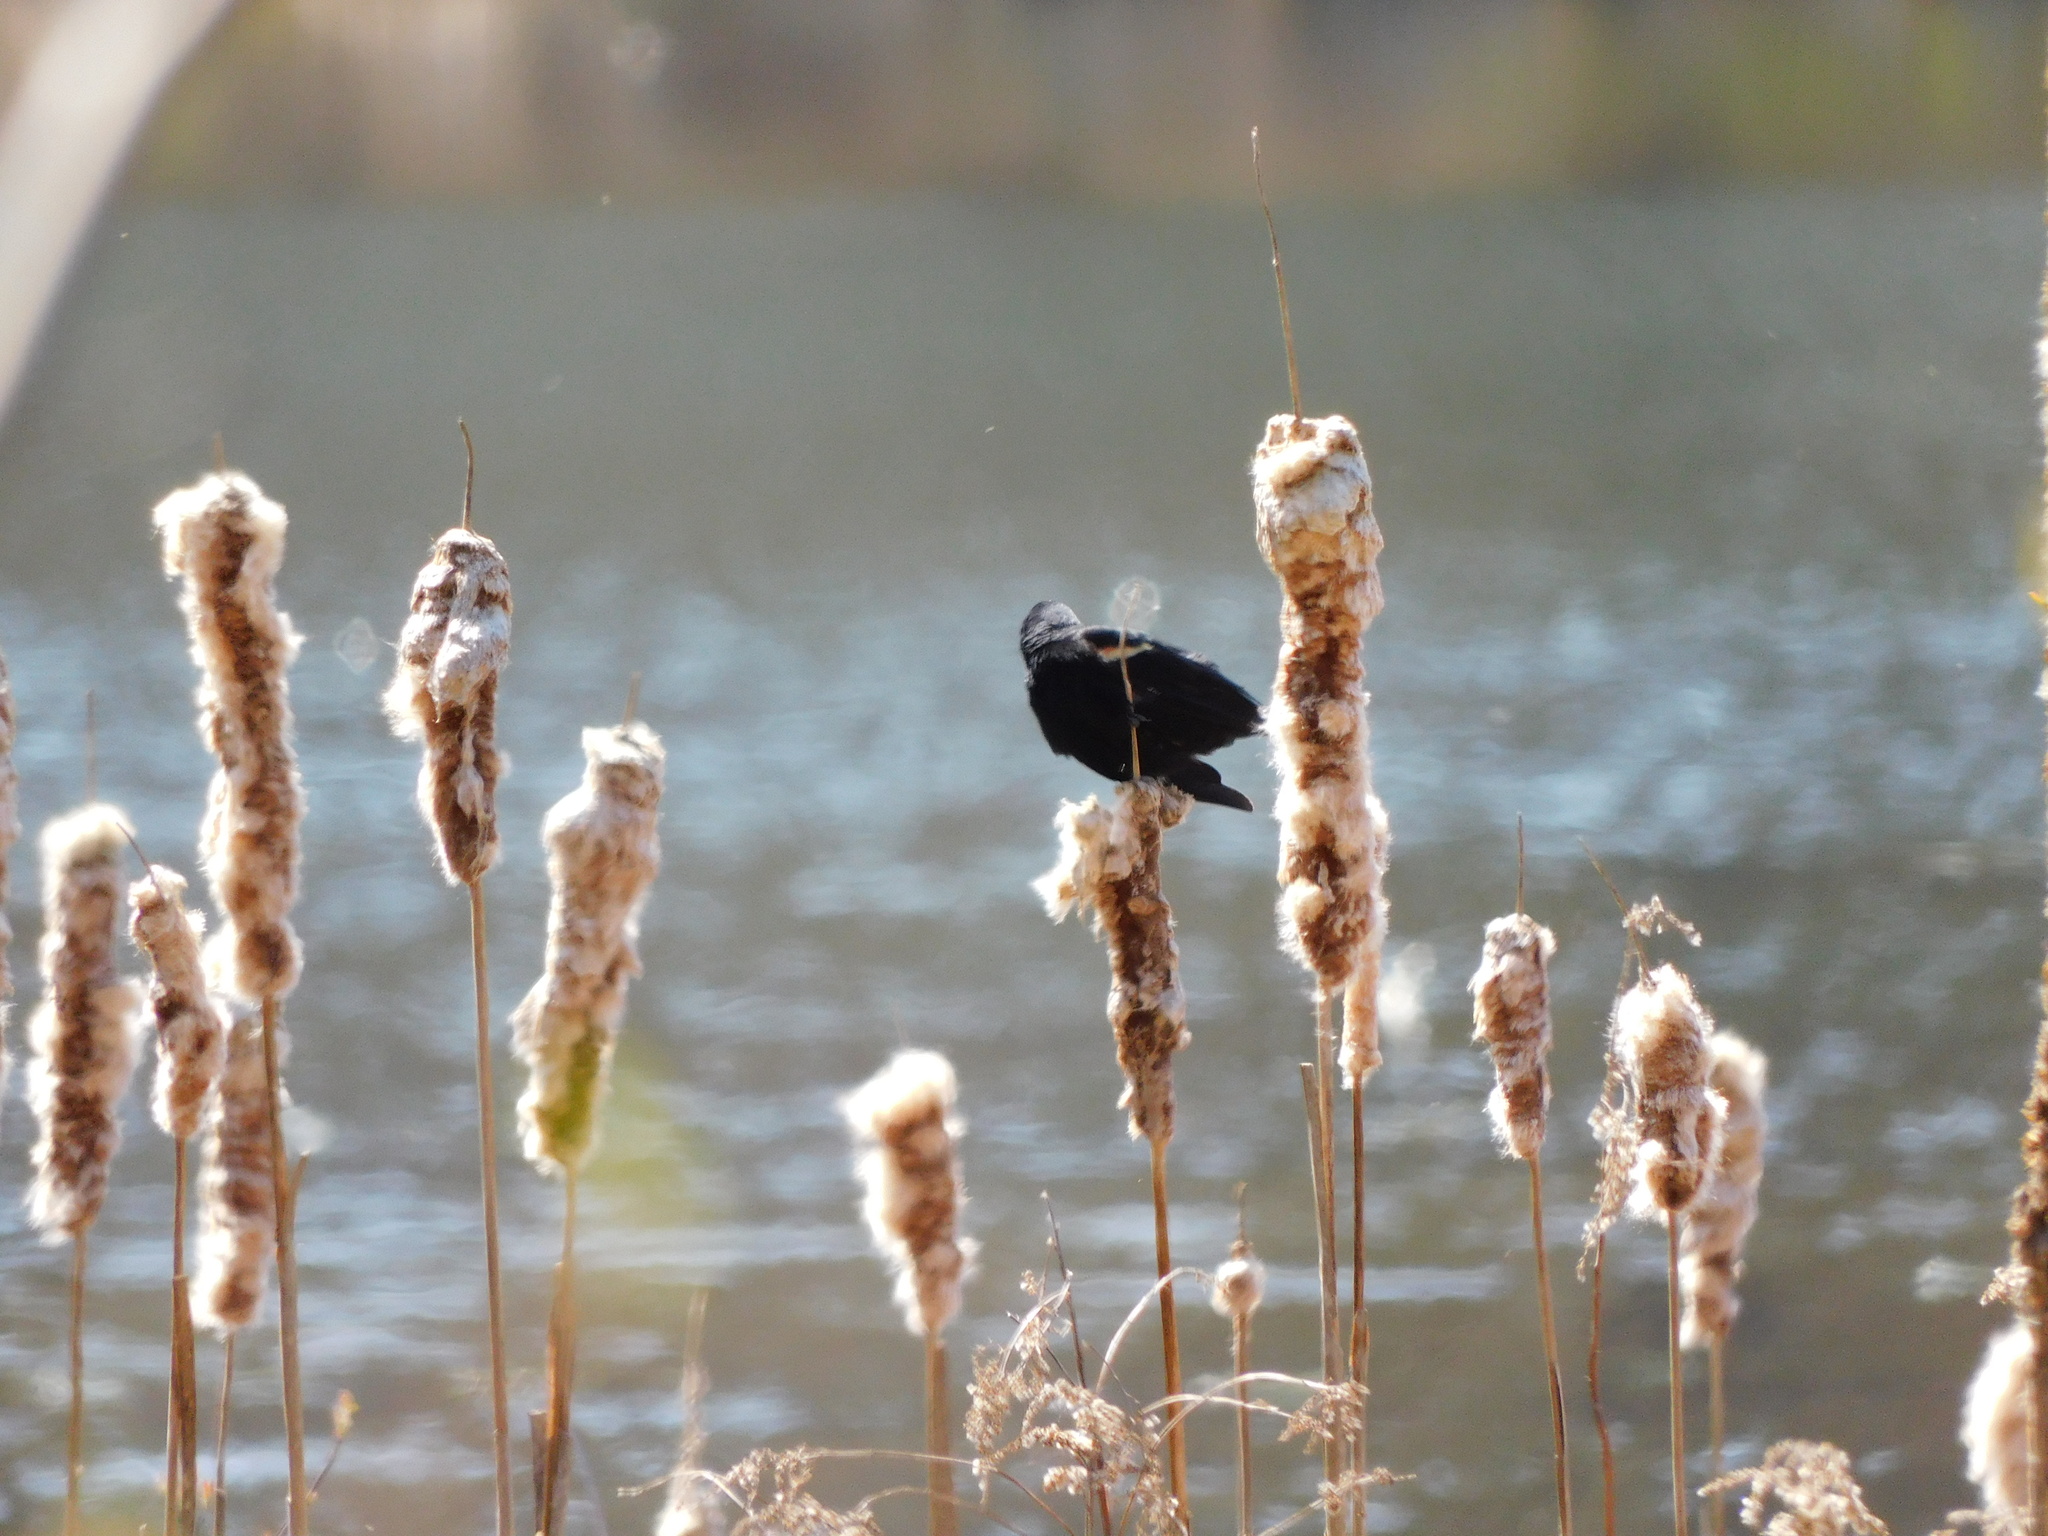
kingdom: Animalia
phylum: Chordata
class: Aves
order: Passeriformes
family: Icteridae
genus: Agelaius
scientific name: Agelaius phoeniceus
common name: Red-winged blackbird
